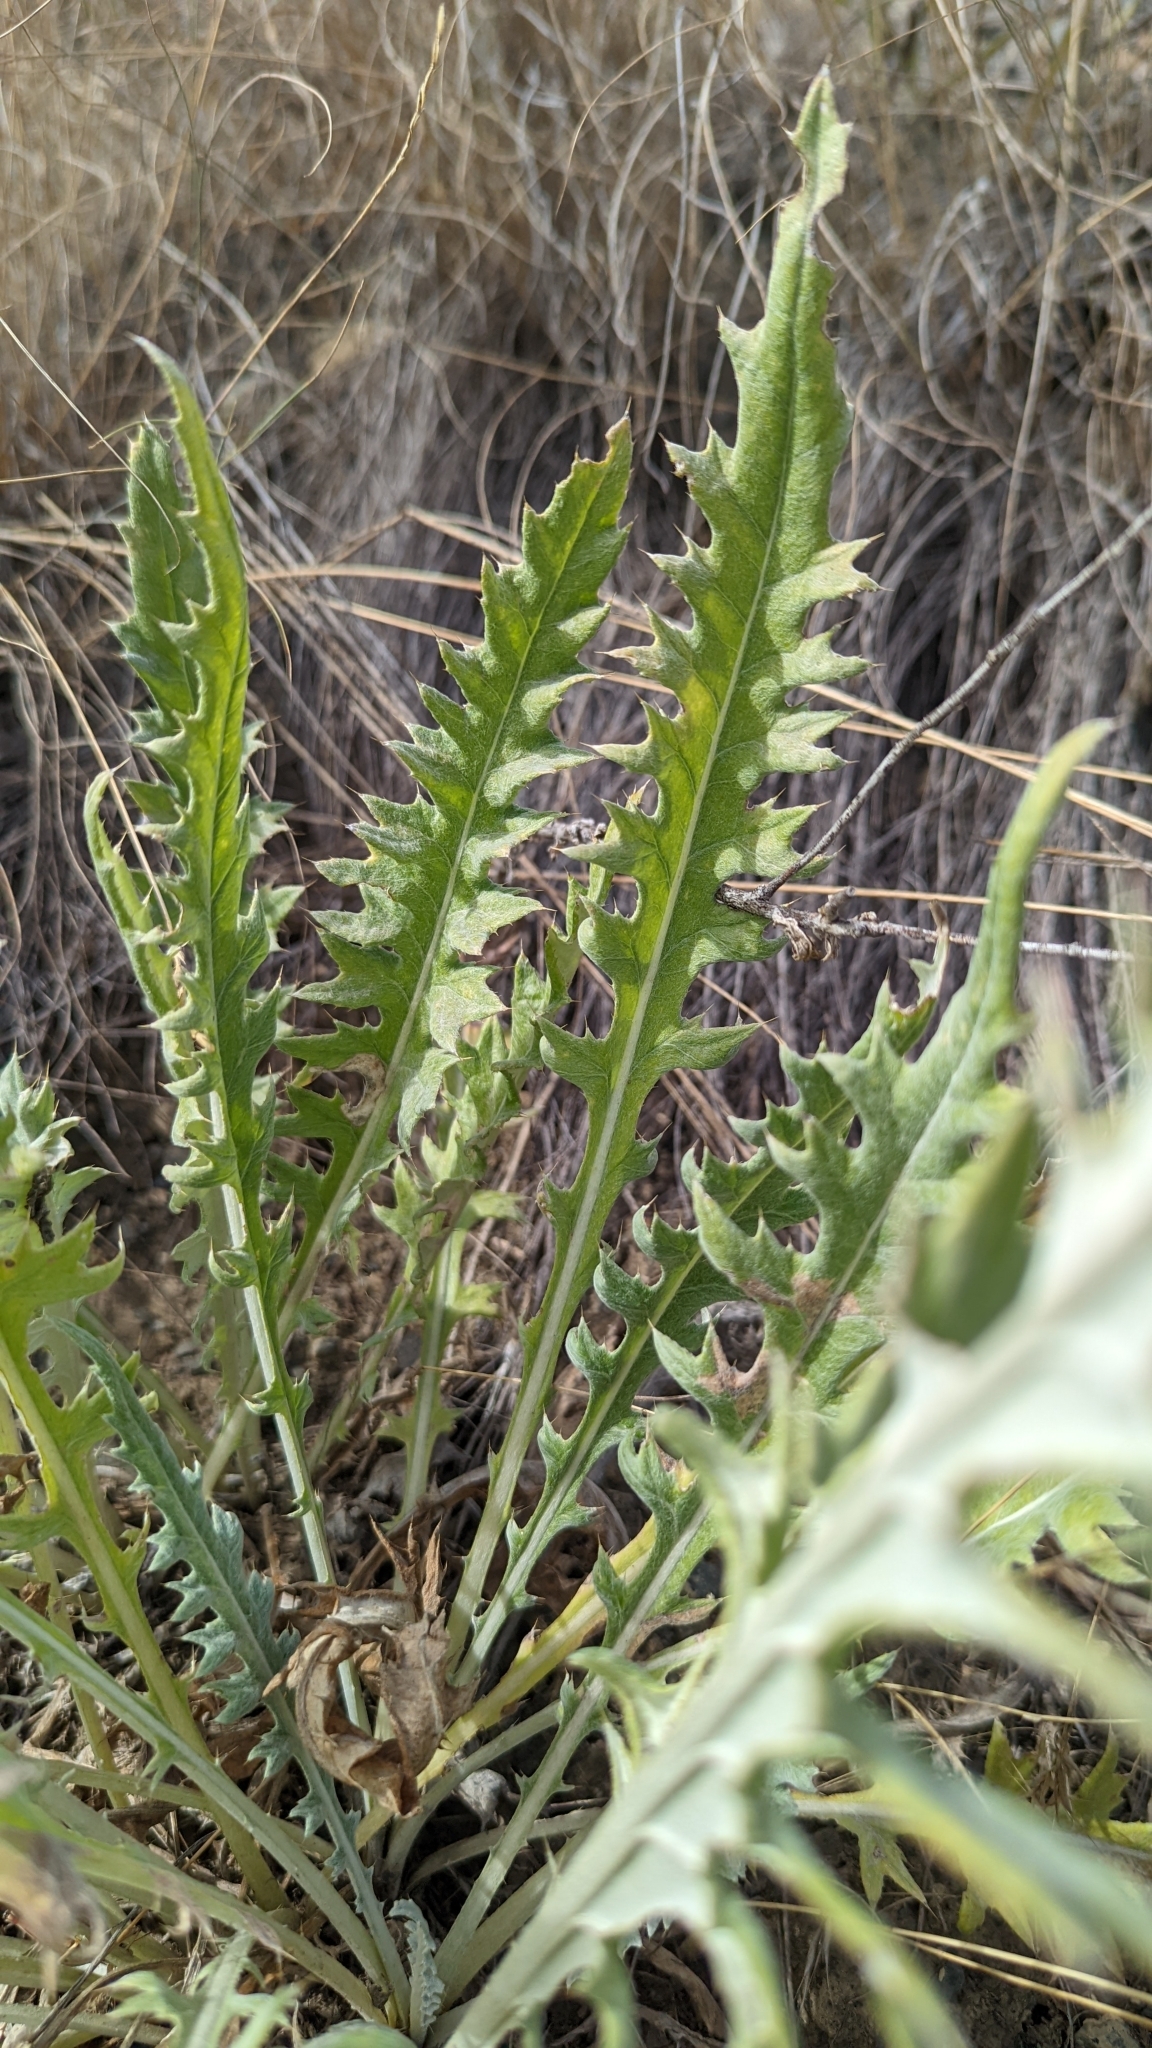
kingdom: Plantae
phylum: Tracheophyta
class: Magnoliopsida
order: Asterales
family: Asteraceae
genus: Cirsium
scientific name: Cirsium undulatum
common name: Pasture thistle
